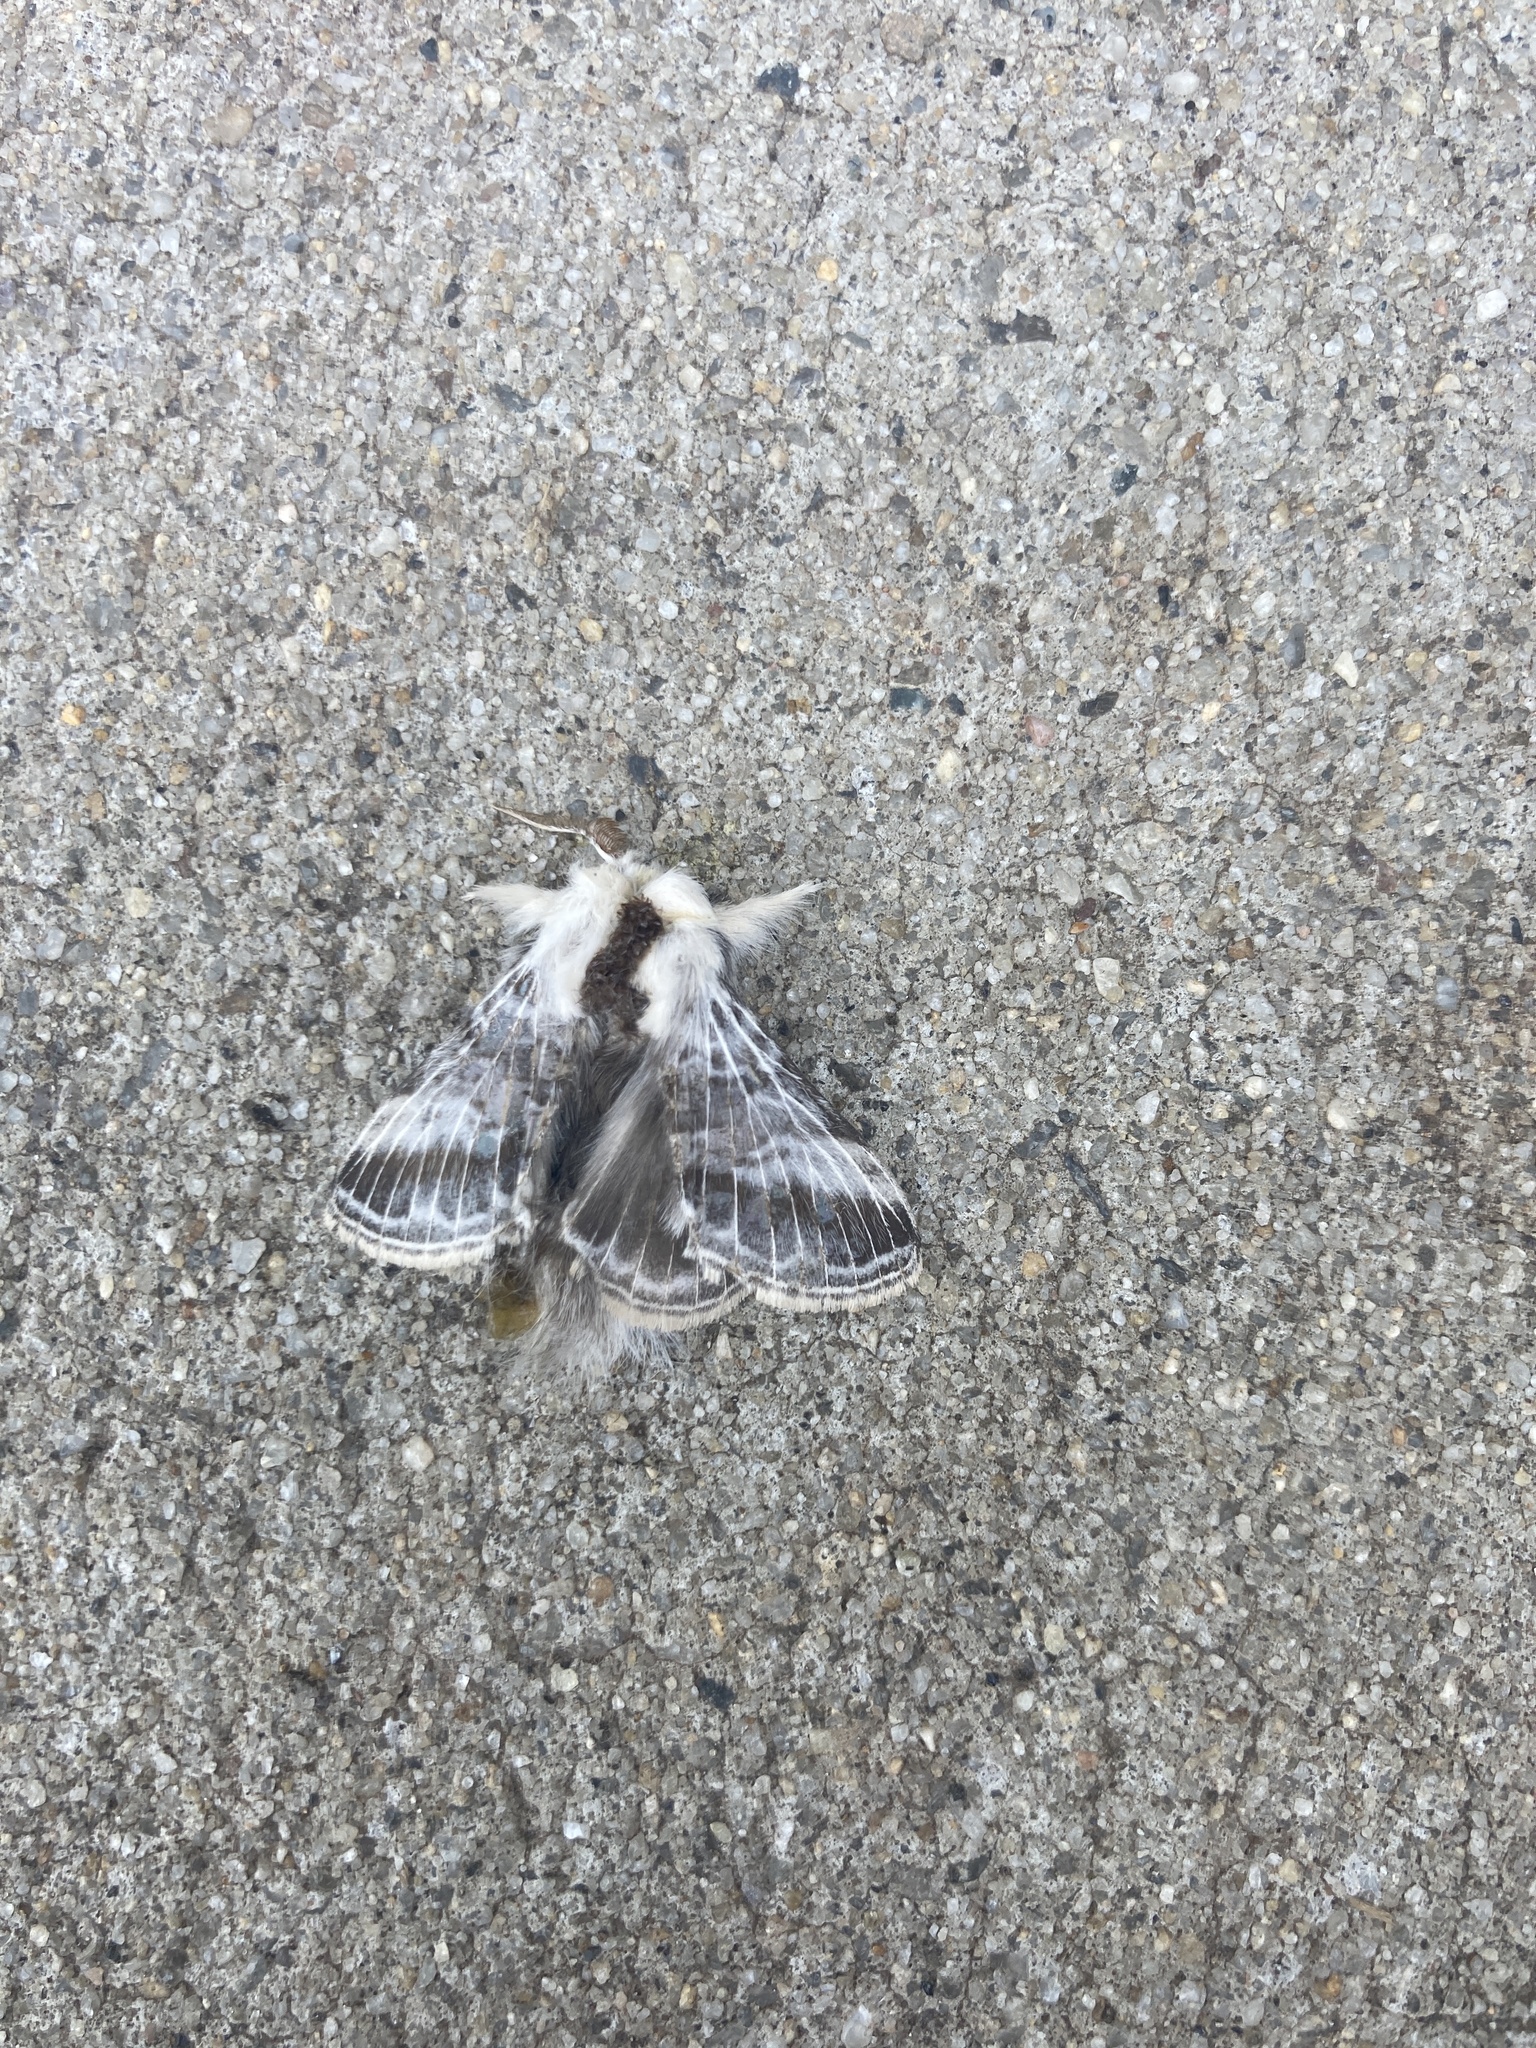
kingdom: Animalia
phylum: Arthropoda
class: Insecta
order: Lepidoptera
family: Lasiocampidae
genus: Tolype
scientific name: Tolype velleda
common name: Large tolype moth
